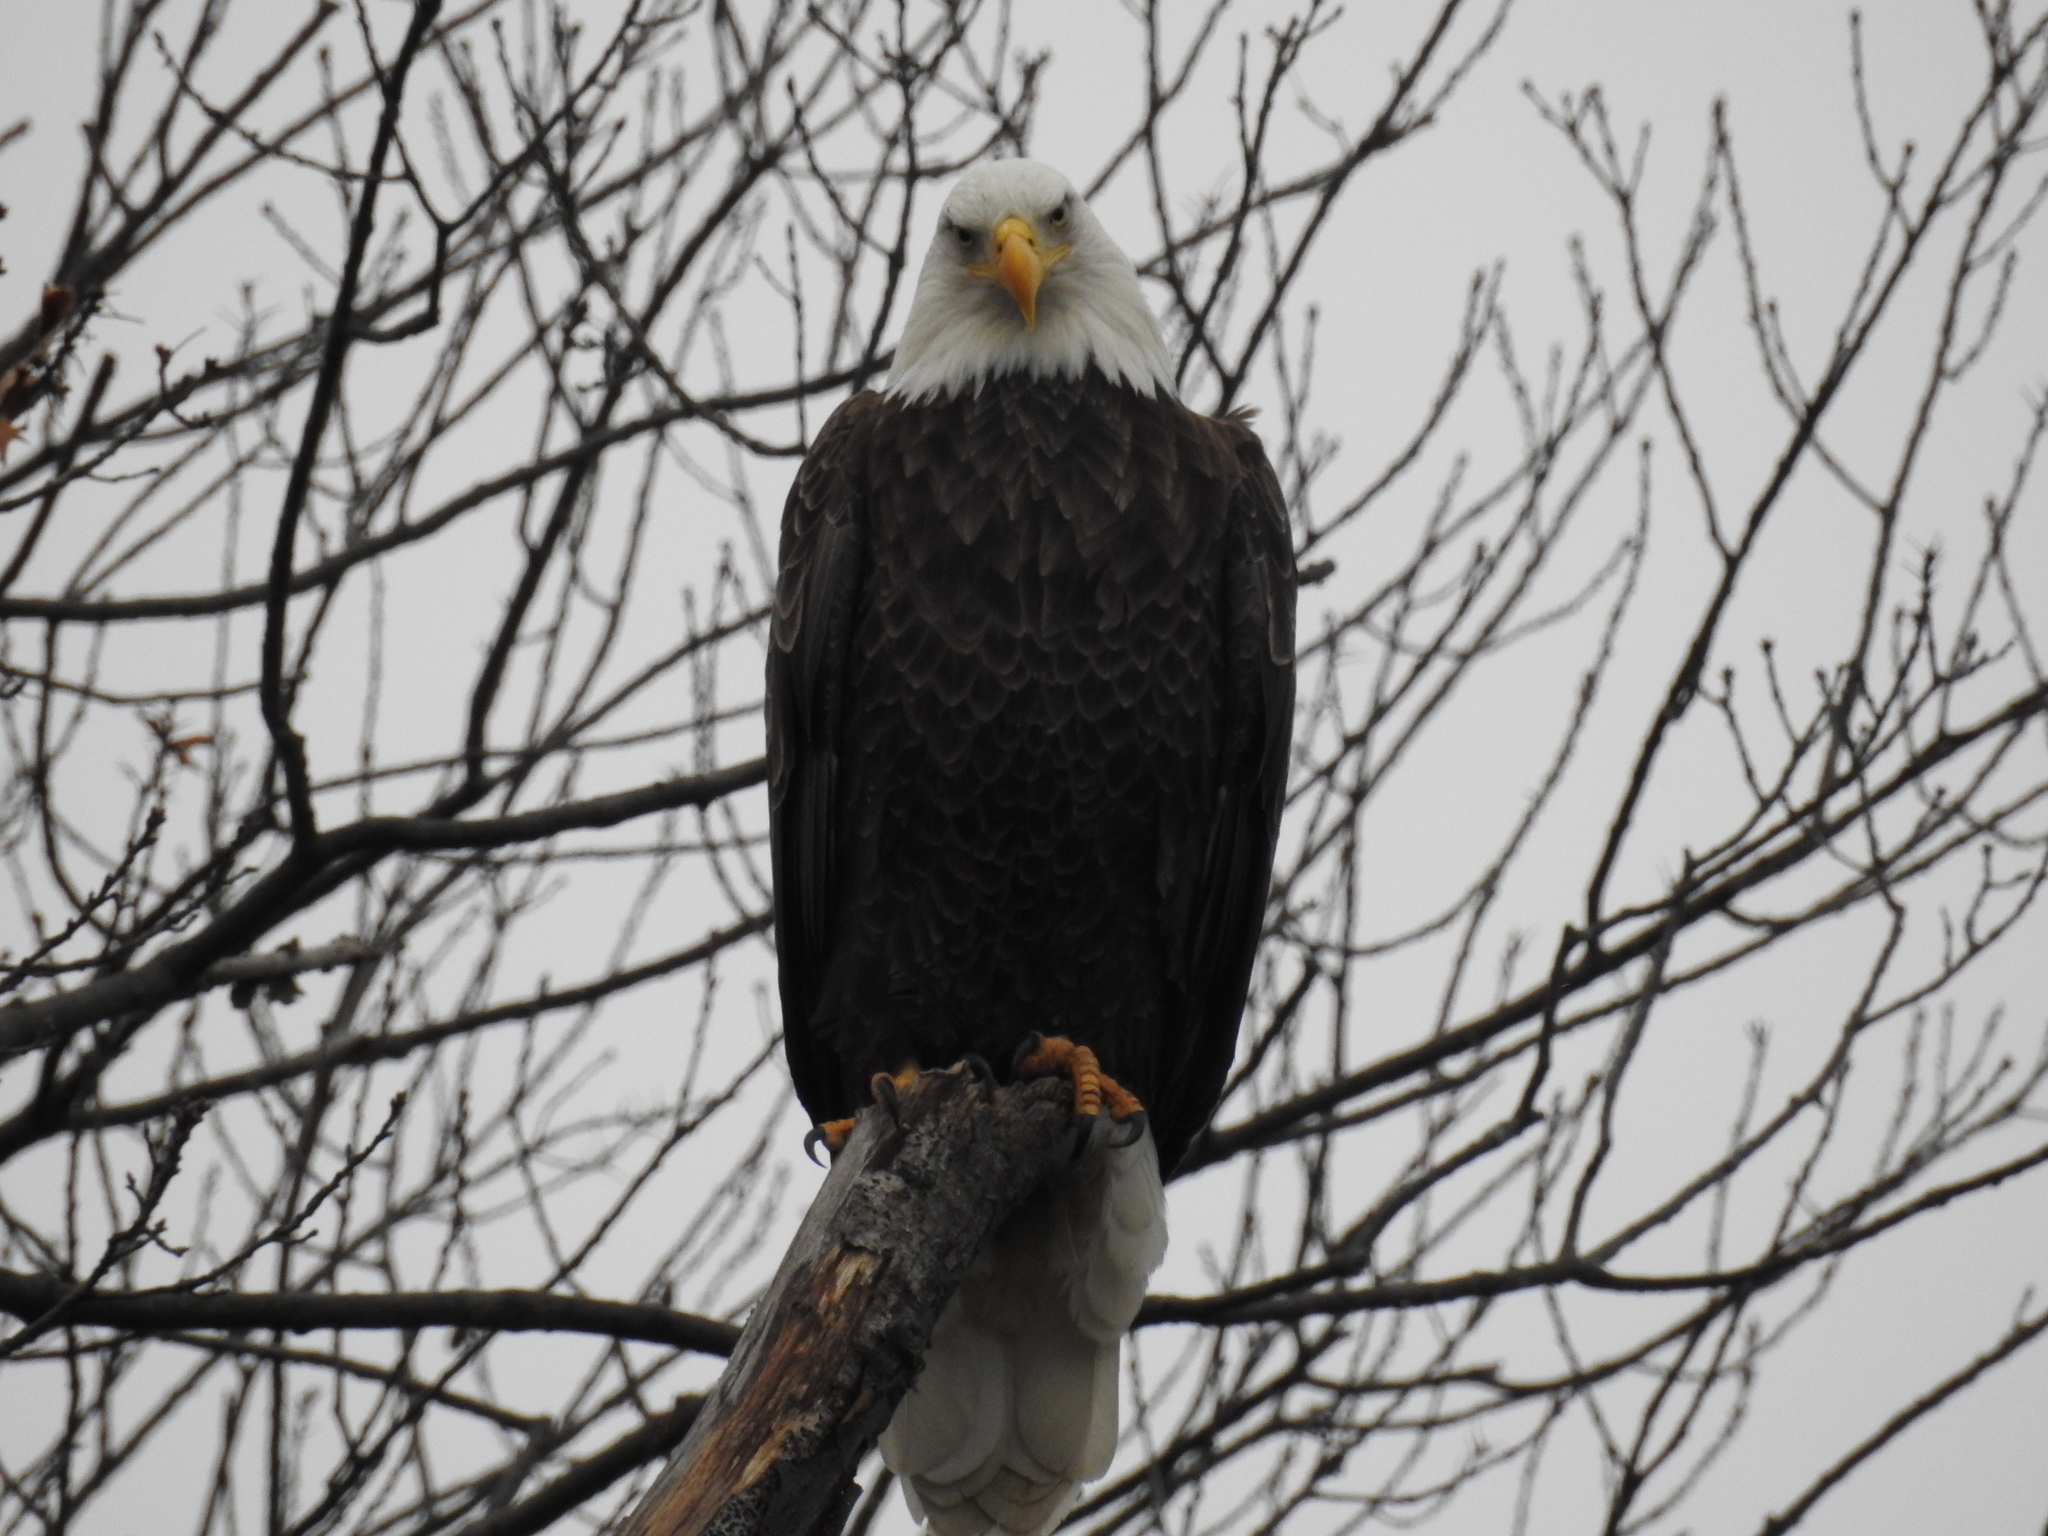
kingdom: Animalia
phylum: Chordata
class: Aves
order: Accipitriformes
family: Accipitridae
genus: Haliaeetus
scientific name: Haliaeetus leucocephalus
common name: Bald eagle
